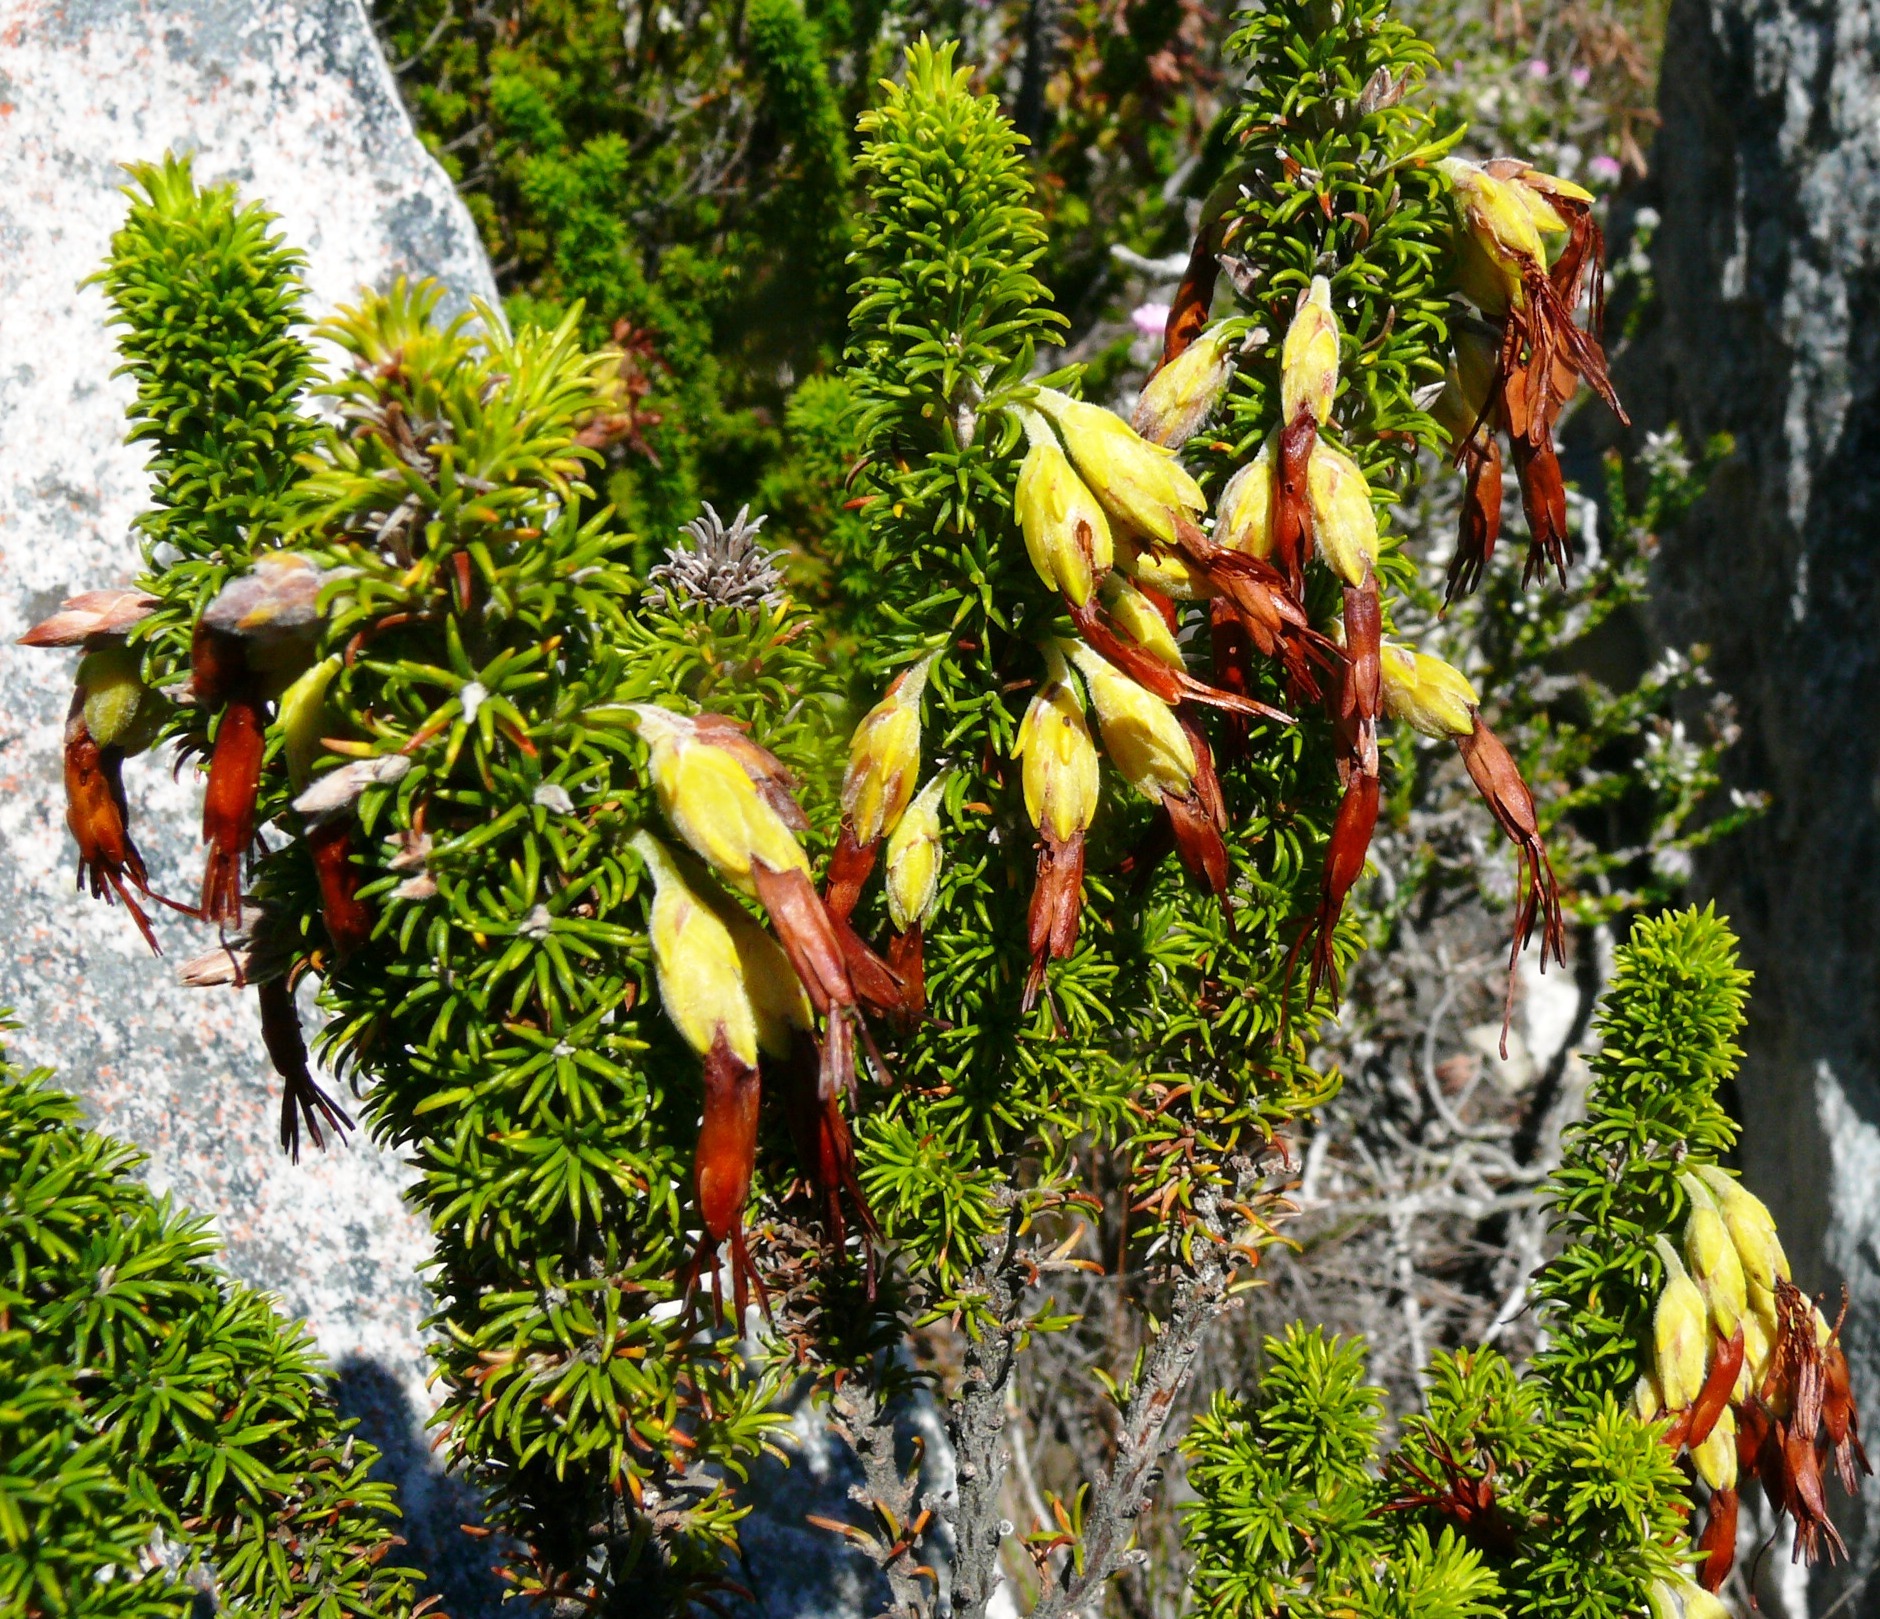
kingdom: Plantae
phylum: Tracheophyta
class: Magnoliopsida
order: Ericales
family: Ericaceae
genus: Erica
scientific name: Erica coccinea
